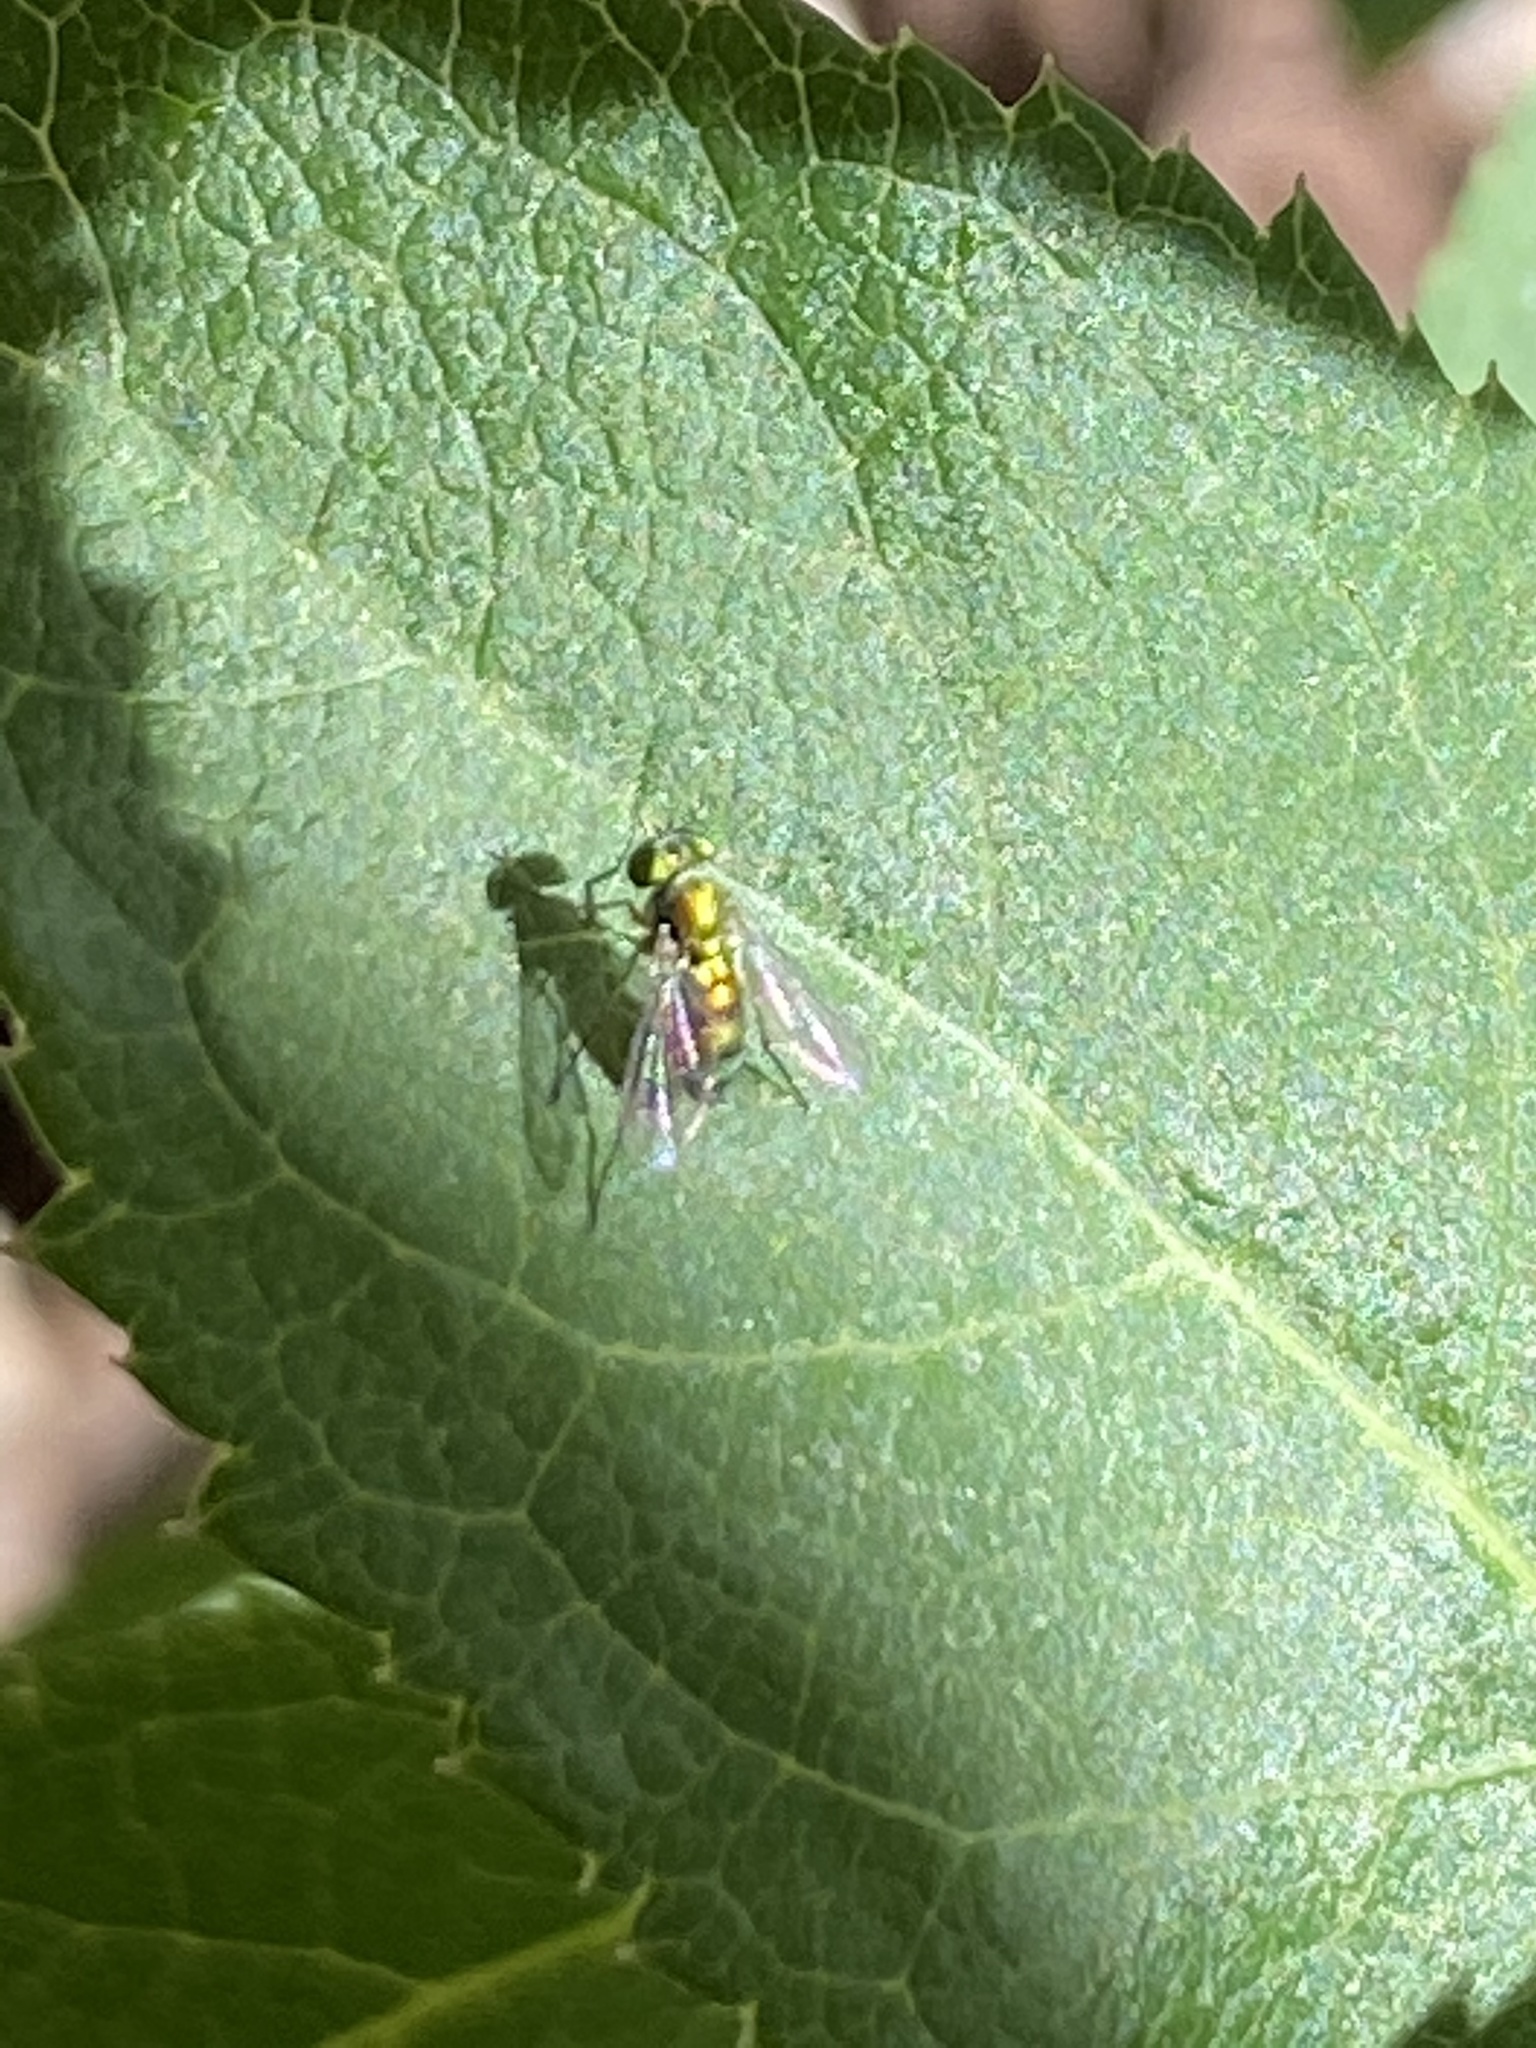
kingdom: Animalia
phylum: Arthropoda
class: Insecta
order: Diptera
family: Syrphidae
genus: Toxomerus
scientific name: Toxomerus marginatus
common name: Syrphid fly
